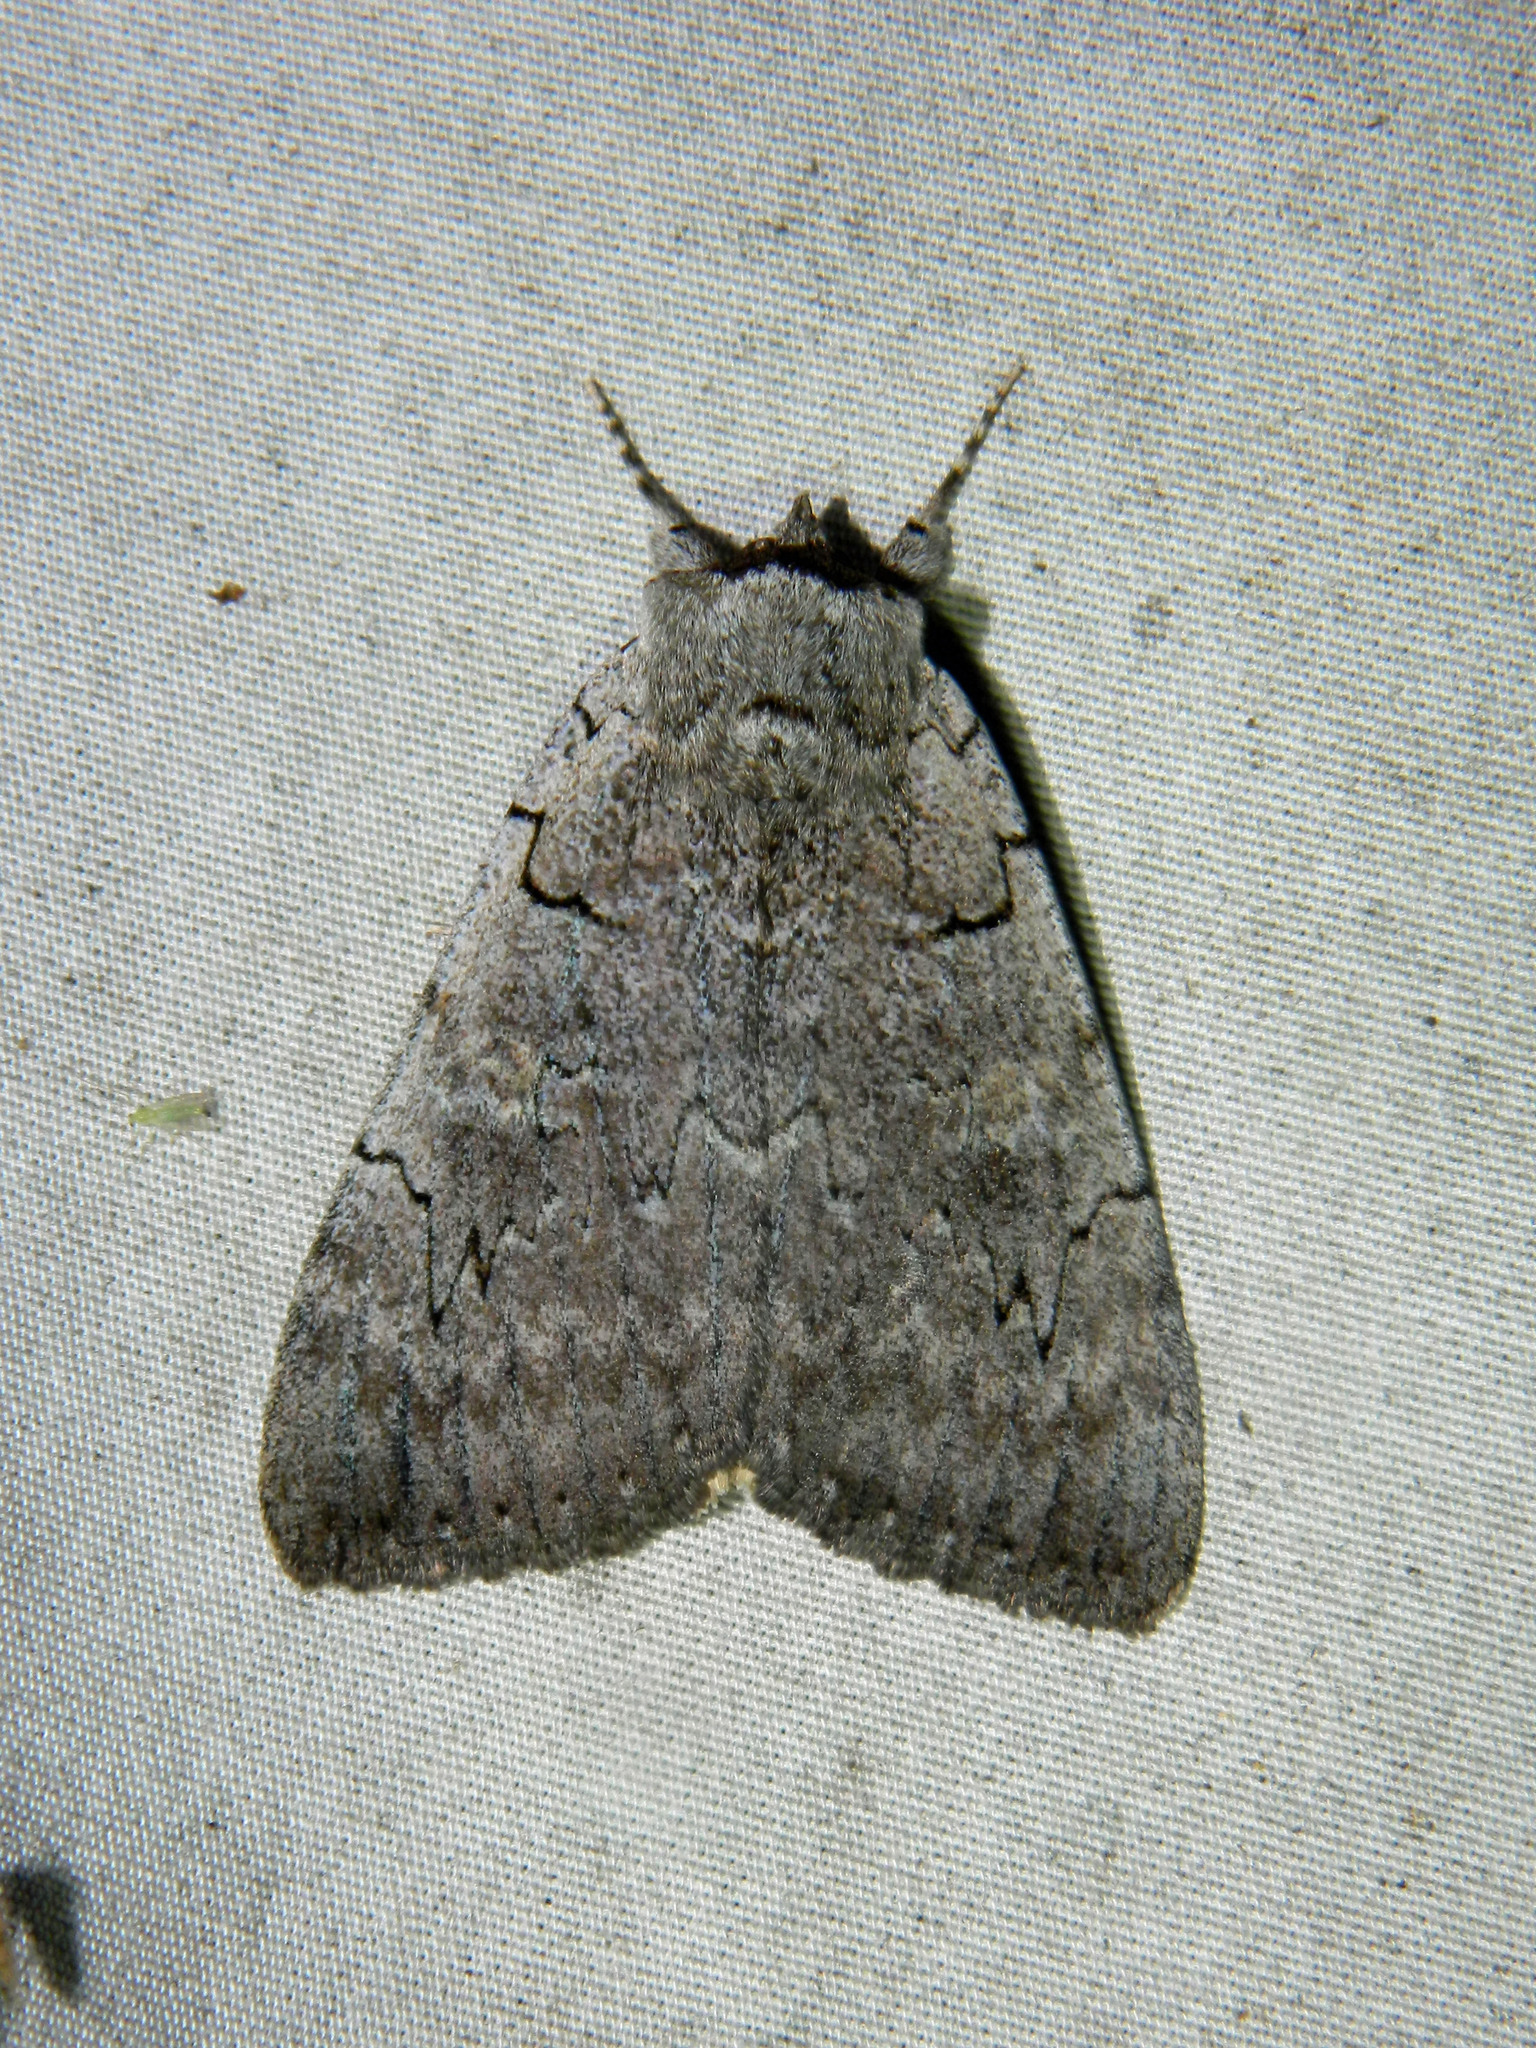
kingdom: Animalia
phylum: Arthropoda
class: Insecta
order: Lepidoptera
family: Erebidae
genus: Catocala
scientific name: Catocala concumbens
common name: Pink underwing
